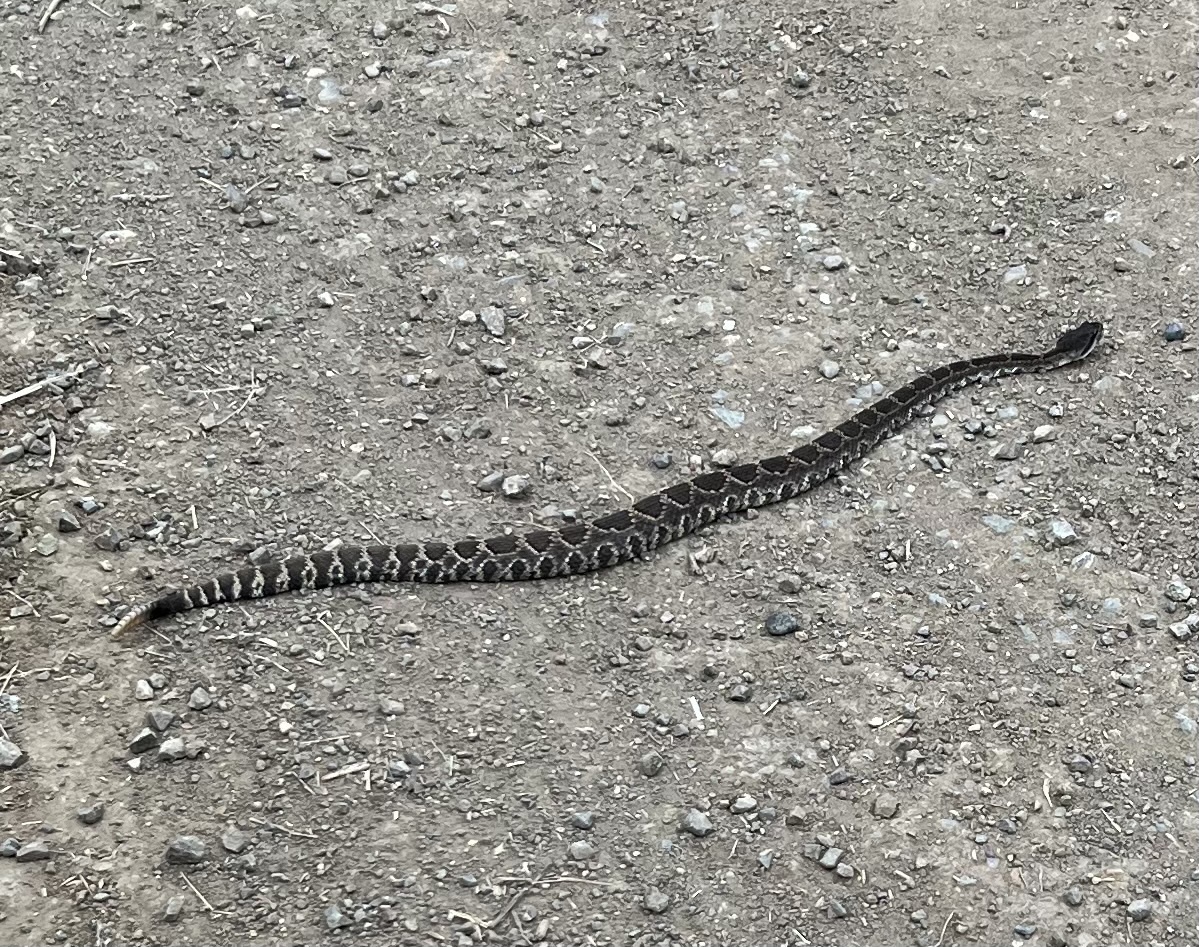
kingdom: Animalia
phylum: Chordata
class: Squamata
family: Viperidae
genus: Crotalus
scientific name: Crotalus oreganus
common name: Abyssus
